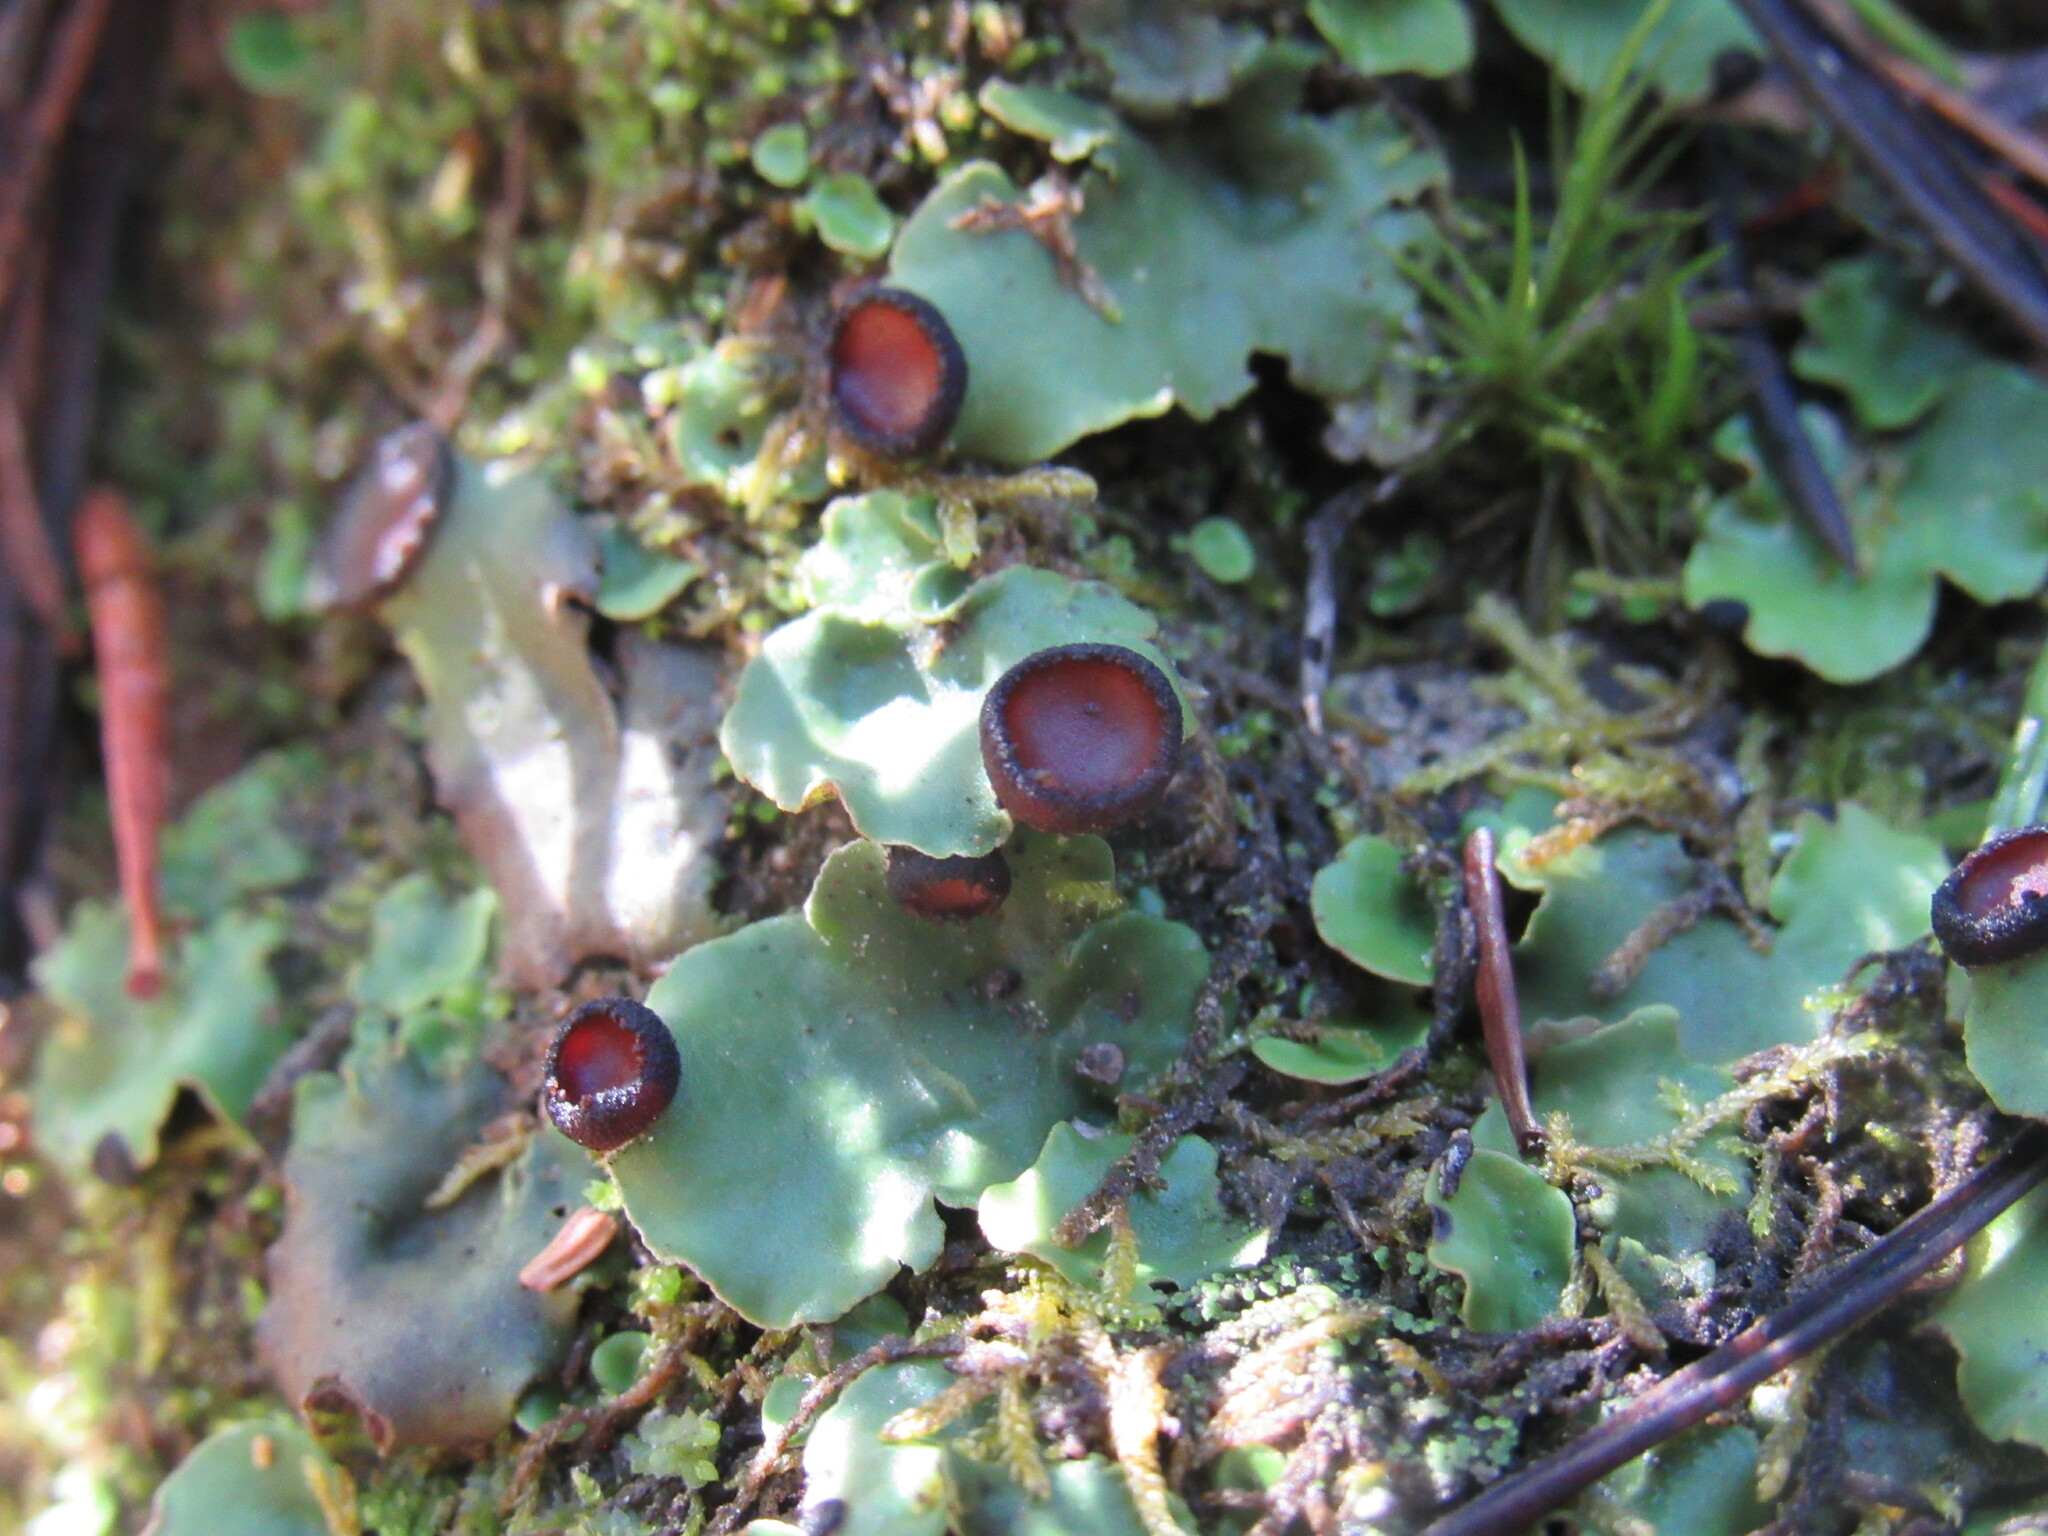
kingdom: Fungi
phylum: Ascomycota
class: Lecanoromycetes
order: Peltigerales
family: Peltigeraceae
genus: Peltigera
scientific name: Peltigera venosa
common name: Pixie gowns lichen
